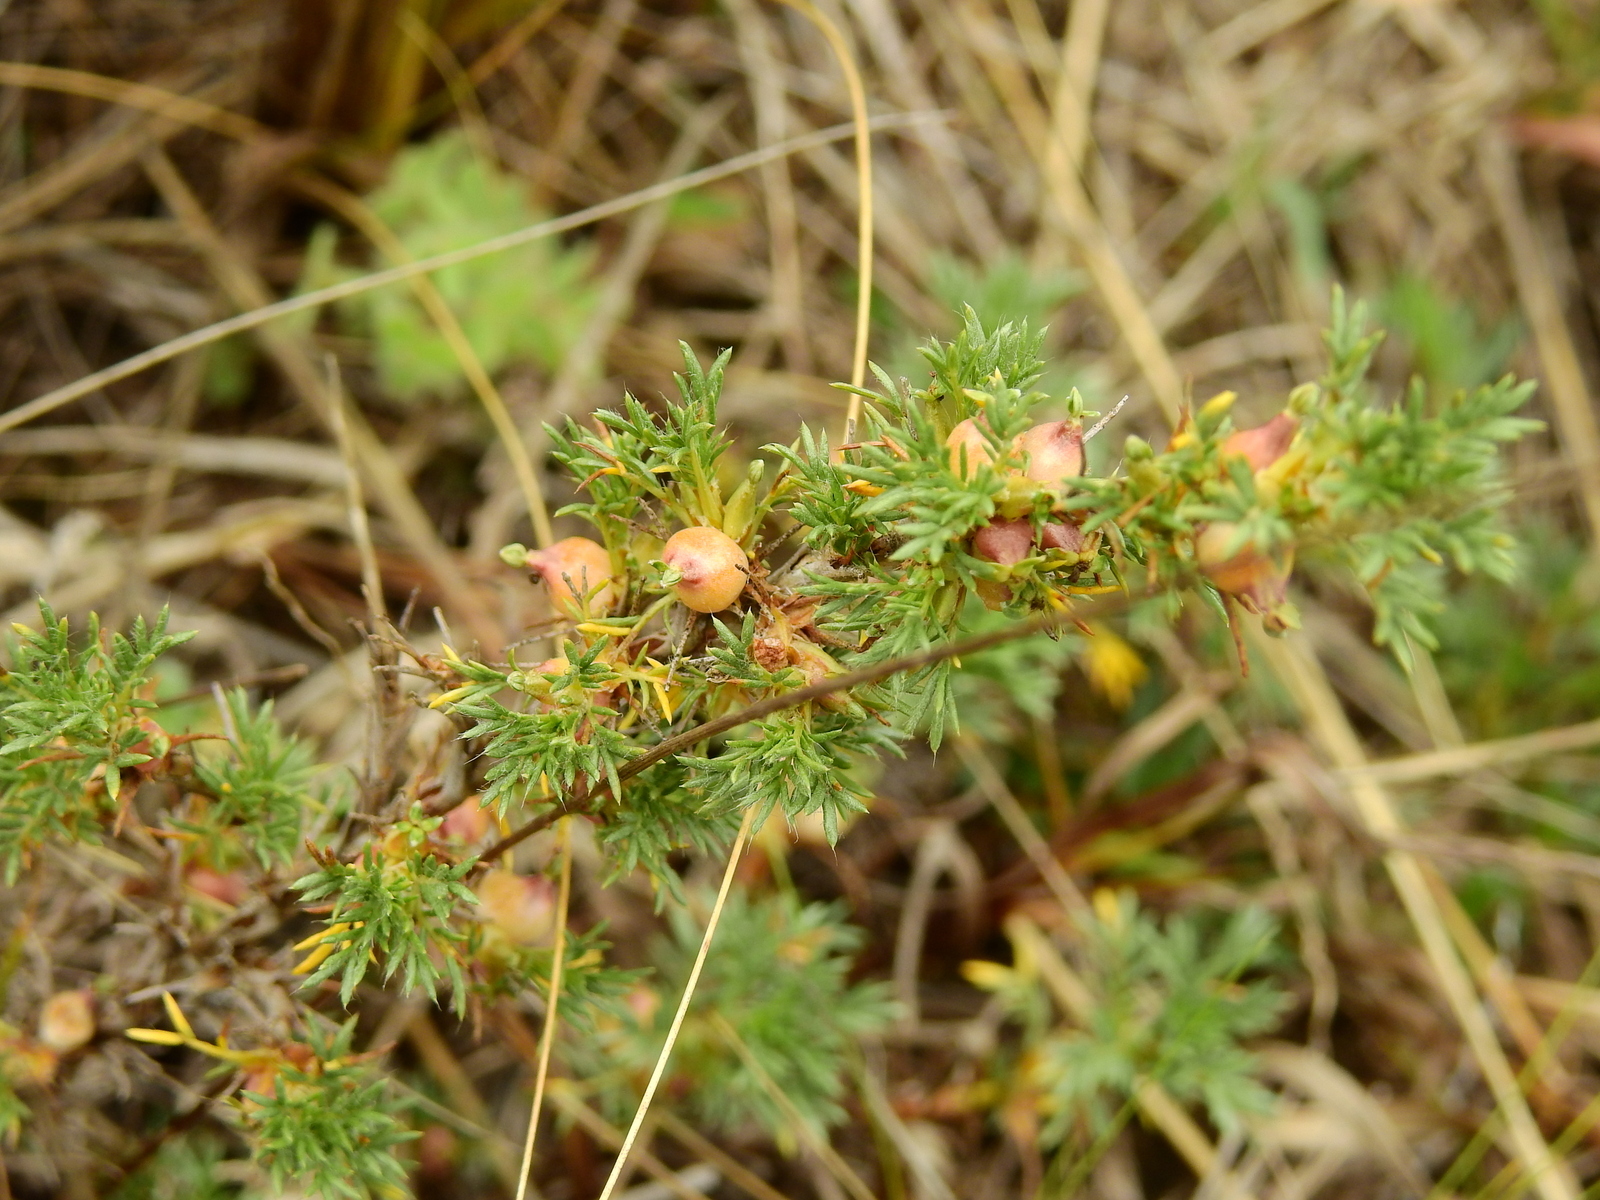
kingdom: Plantae
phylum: Tracheophyta
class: Magnoliopsida
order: Rosales
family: Rosaceae
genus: Margyricarpus
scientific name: Margyricarpus pinnatus
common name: Pearlfruit
